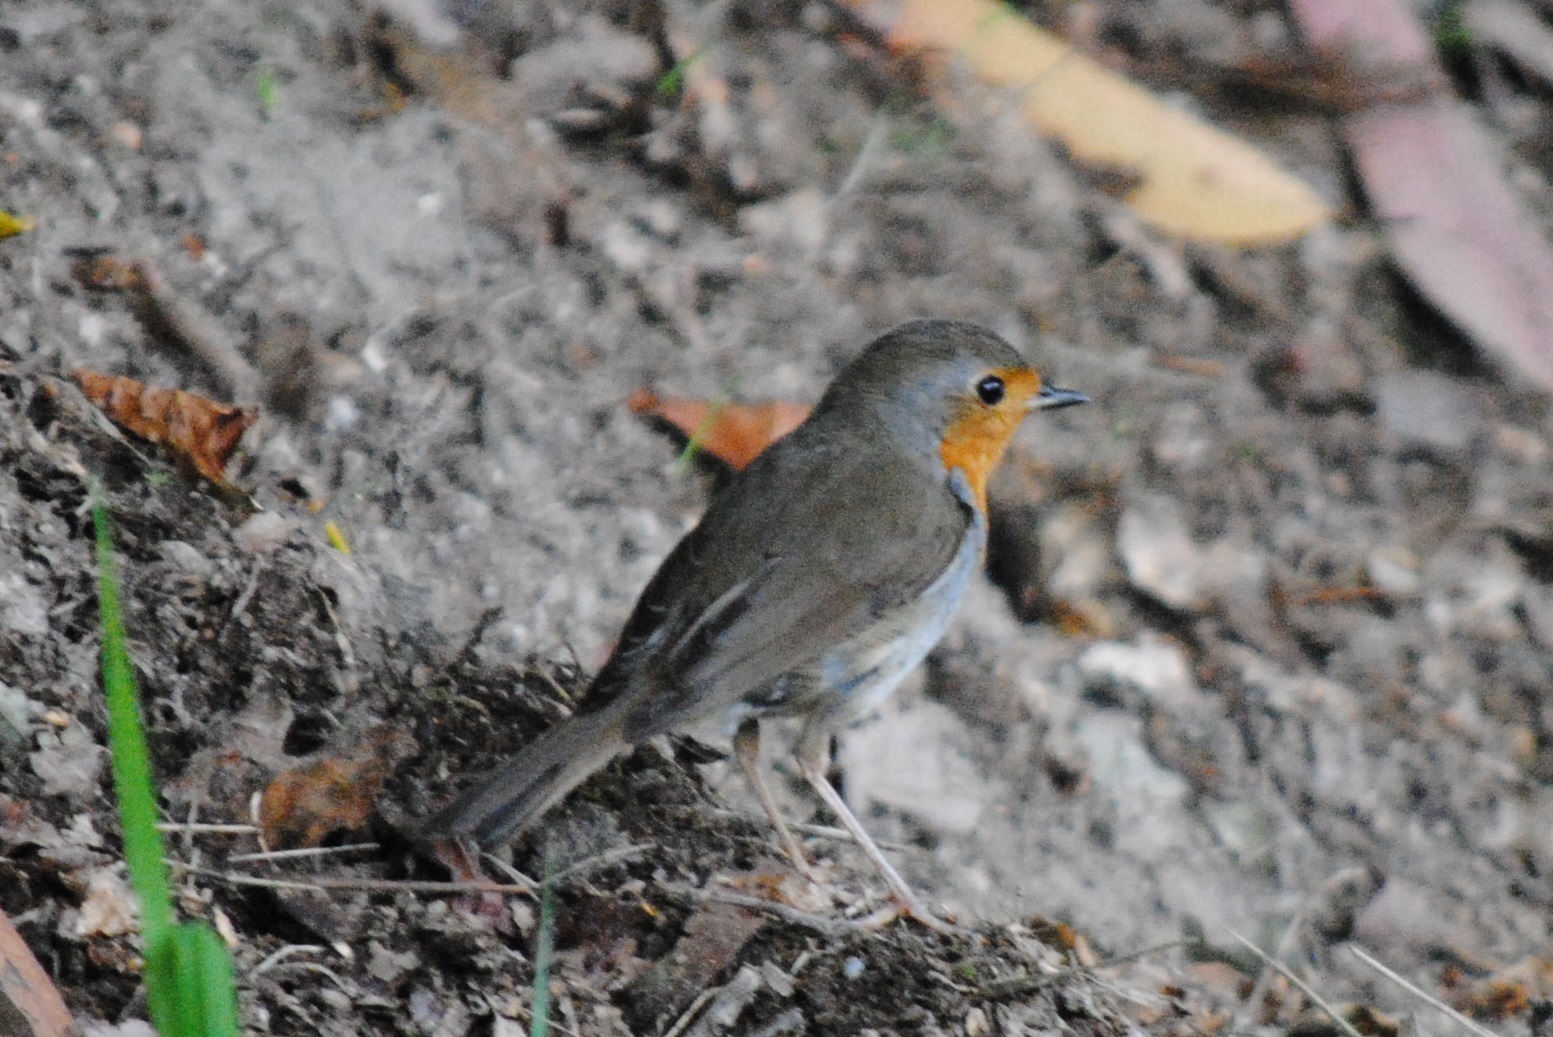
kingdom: Animalia
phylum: Chordata
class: Aves
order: Passeriformes
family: Muscicapidae
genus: Erithacus
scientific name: Erithacus rubecula
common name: European robin
